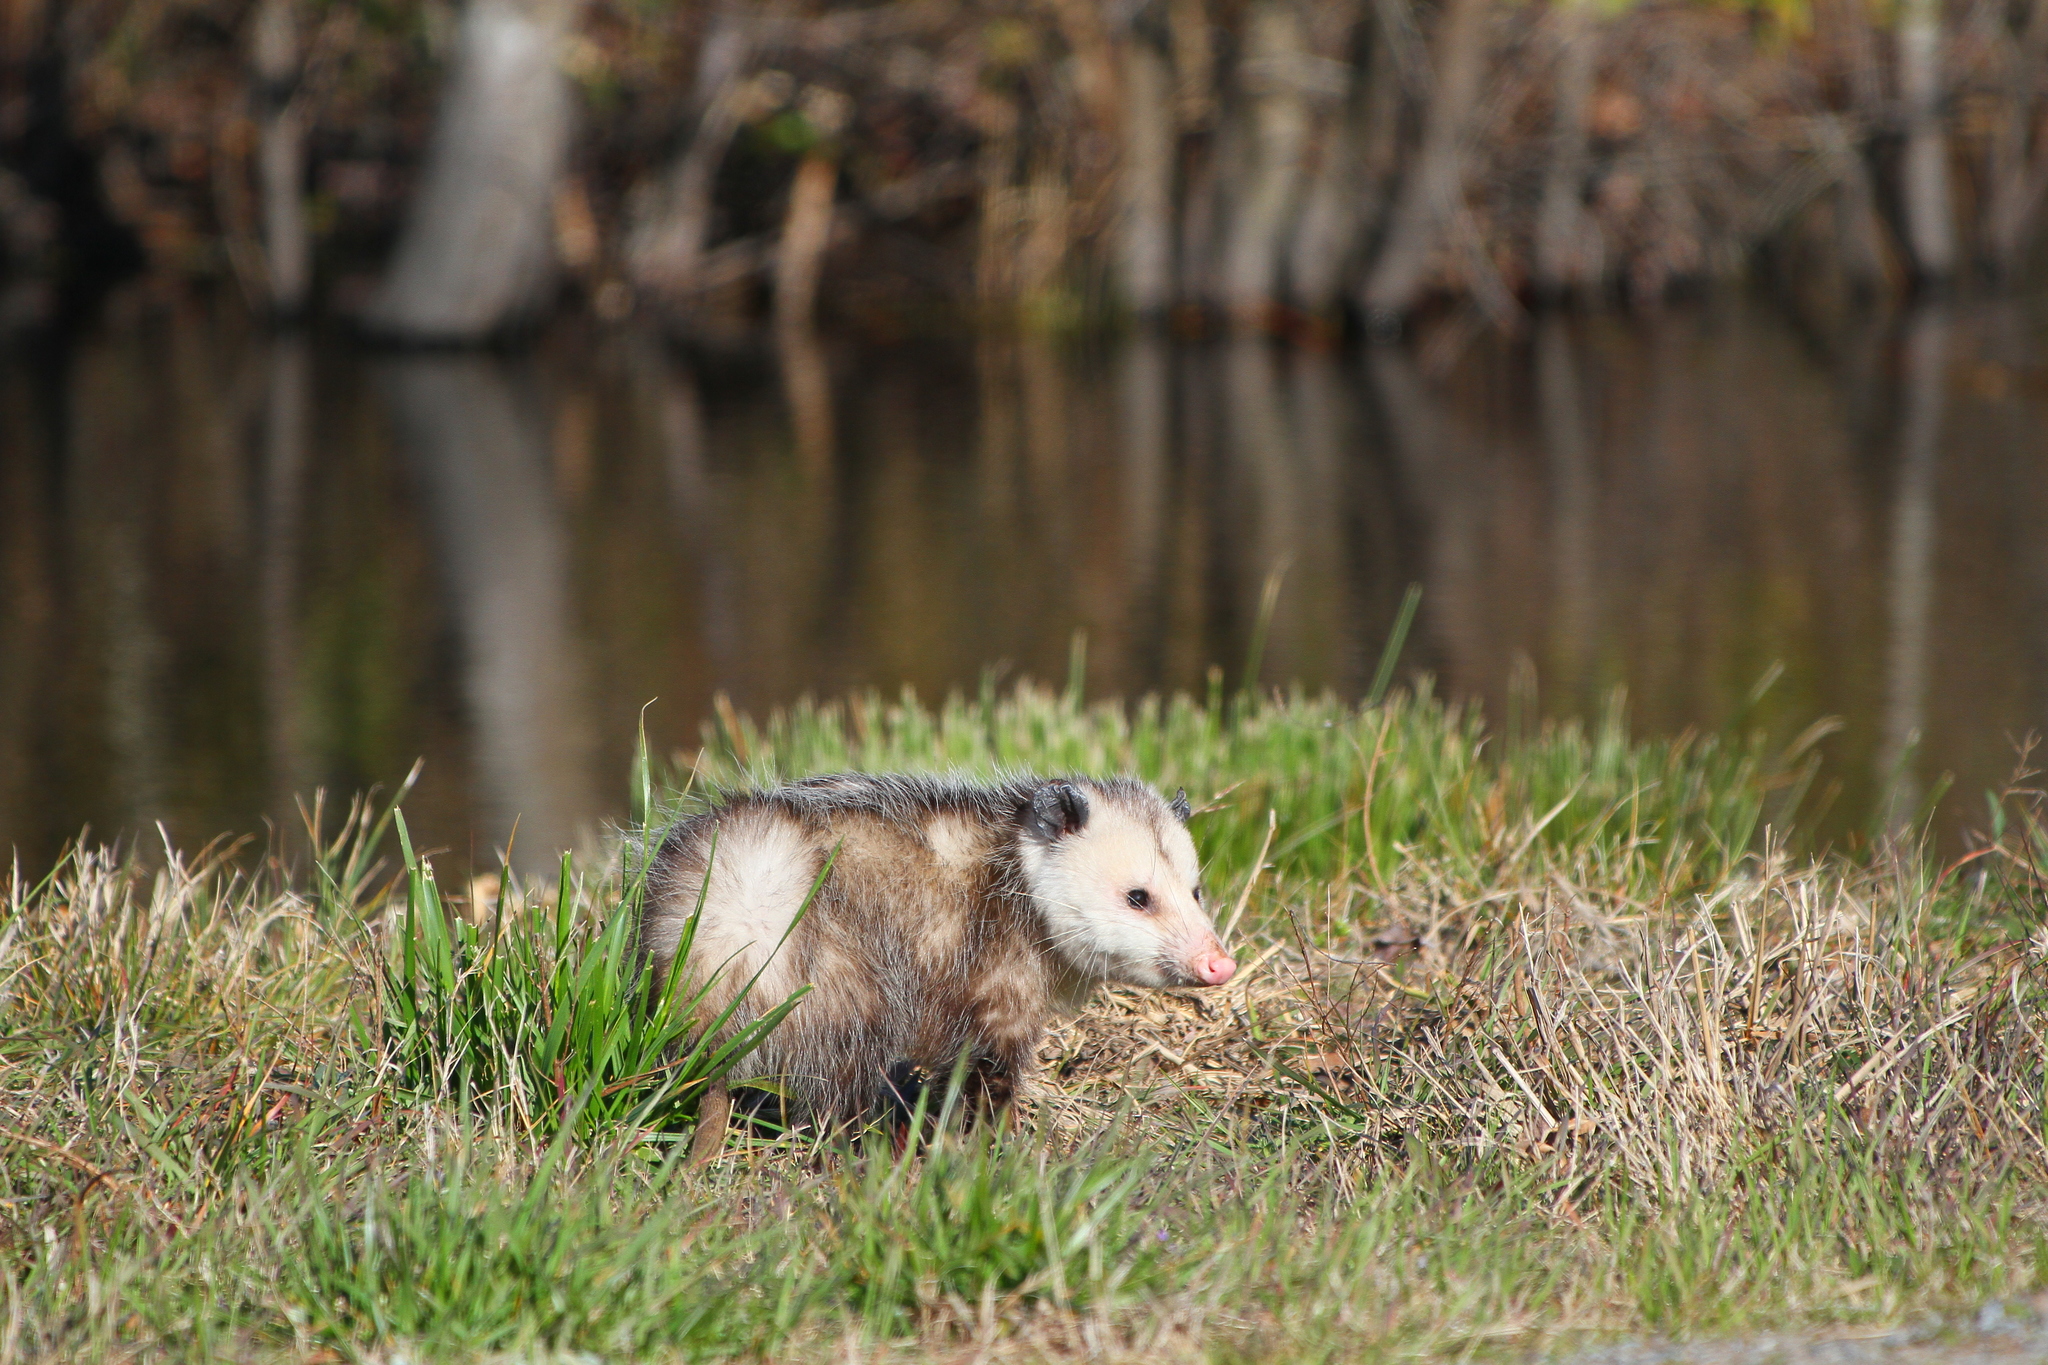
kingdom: Animalia
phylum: Chordata
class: Mammalia
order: Didelphimorphia
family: Didelphidae
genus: Didelphis
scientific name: Didelphis virginiana
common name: Virginia opossum
